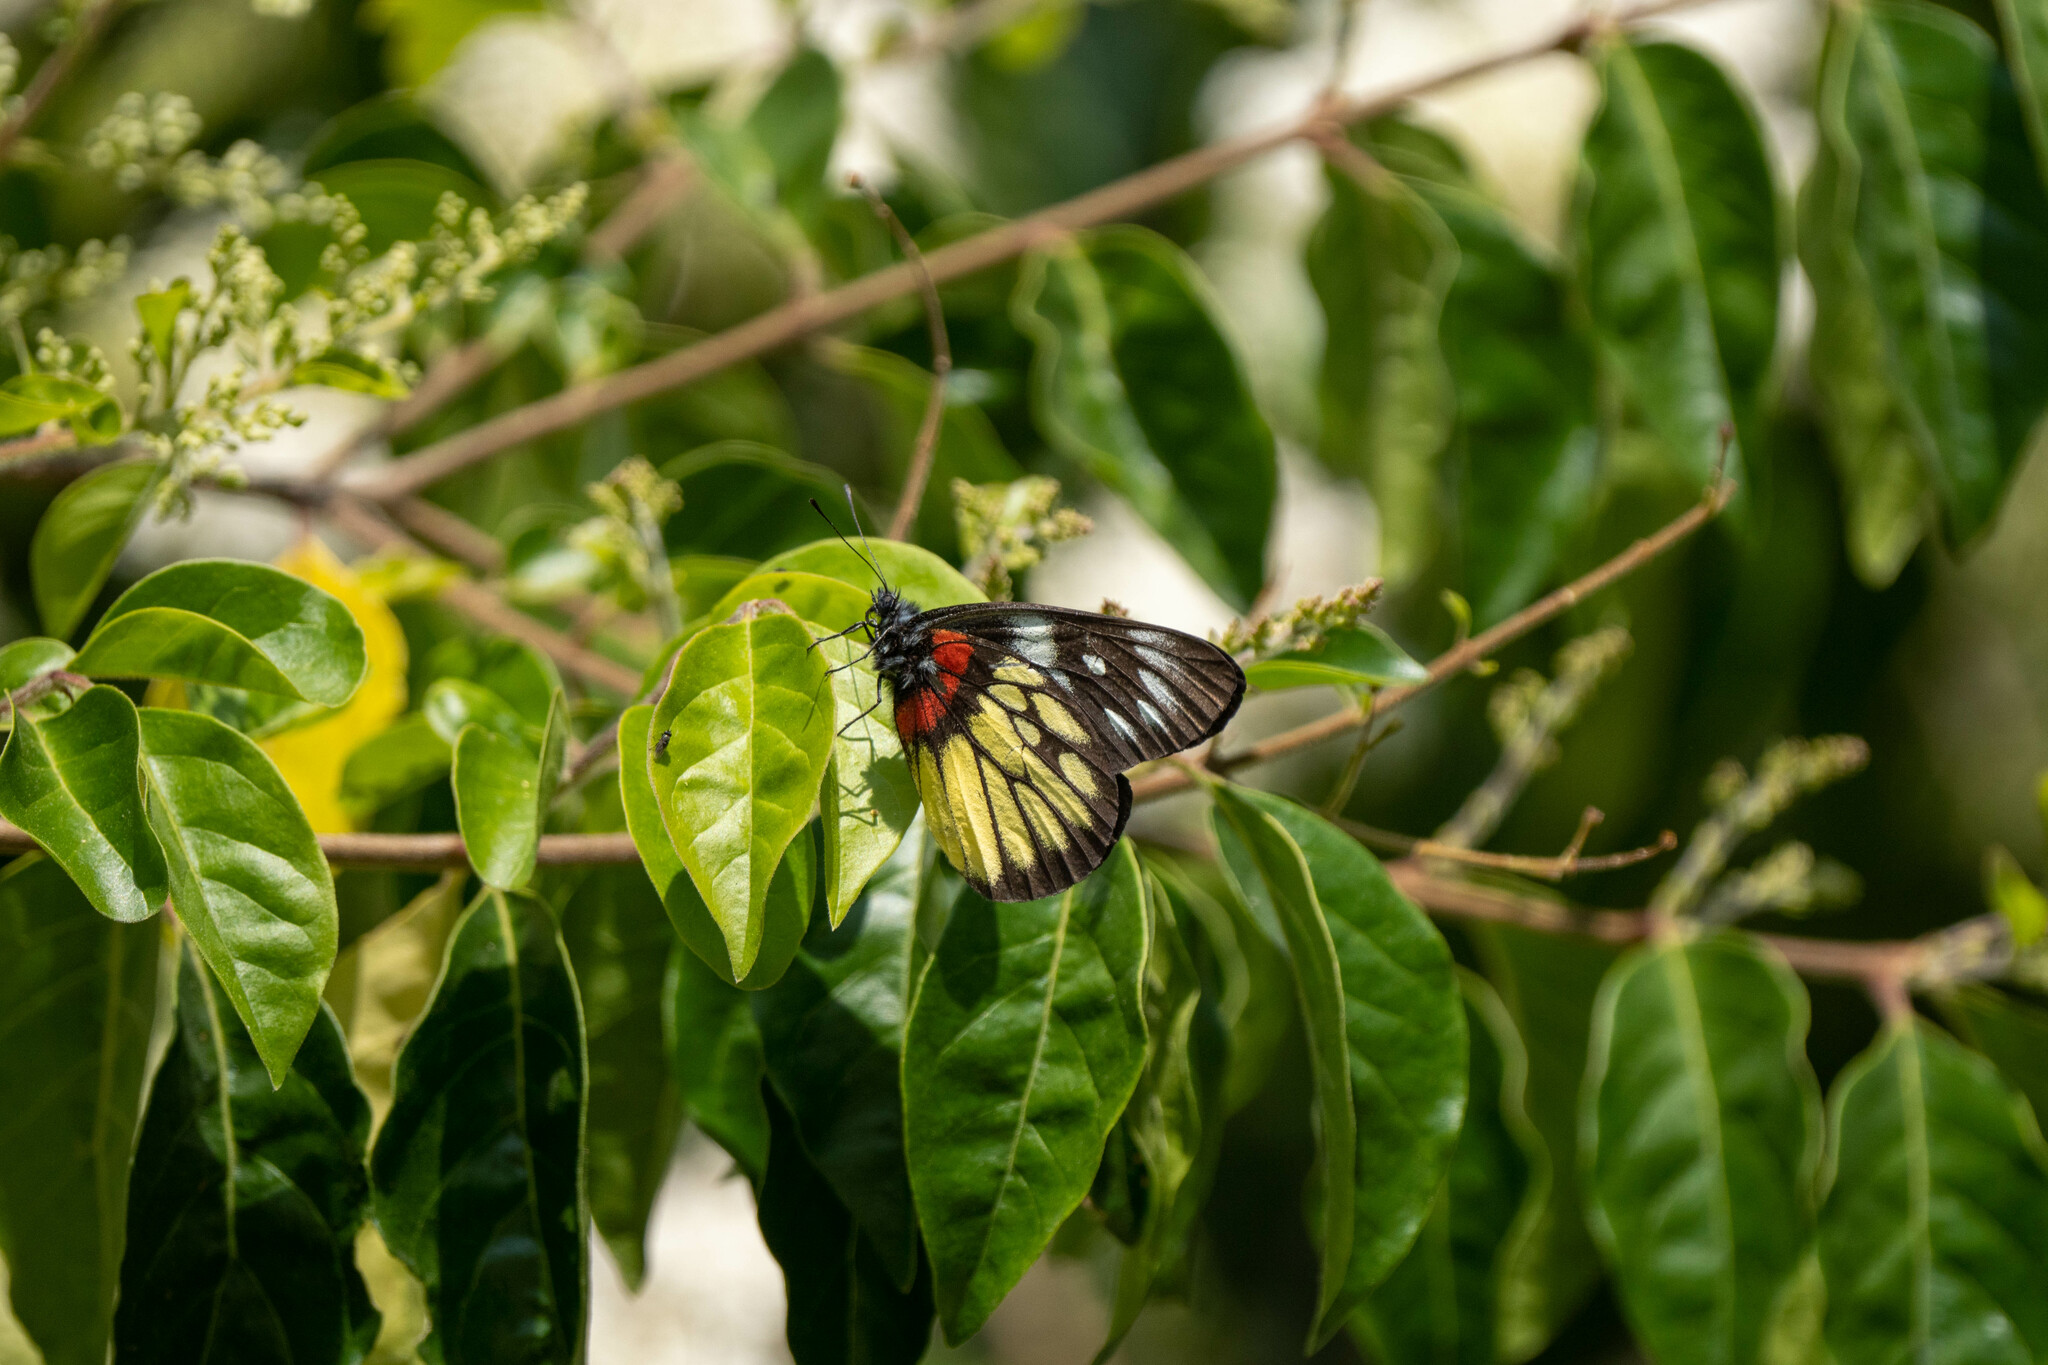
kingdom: Animalia
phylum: Arthropoda
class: Insecta
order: Lepidoptera
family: Pieridae
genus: Delias
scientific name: Delias pasithoe
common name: Red-base jezebel
